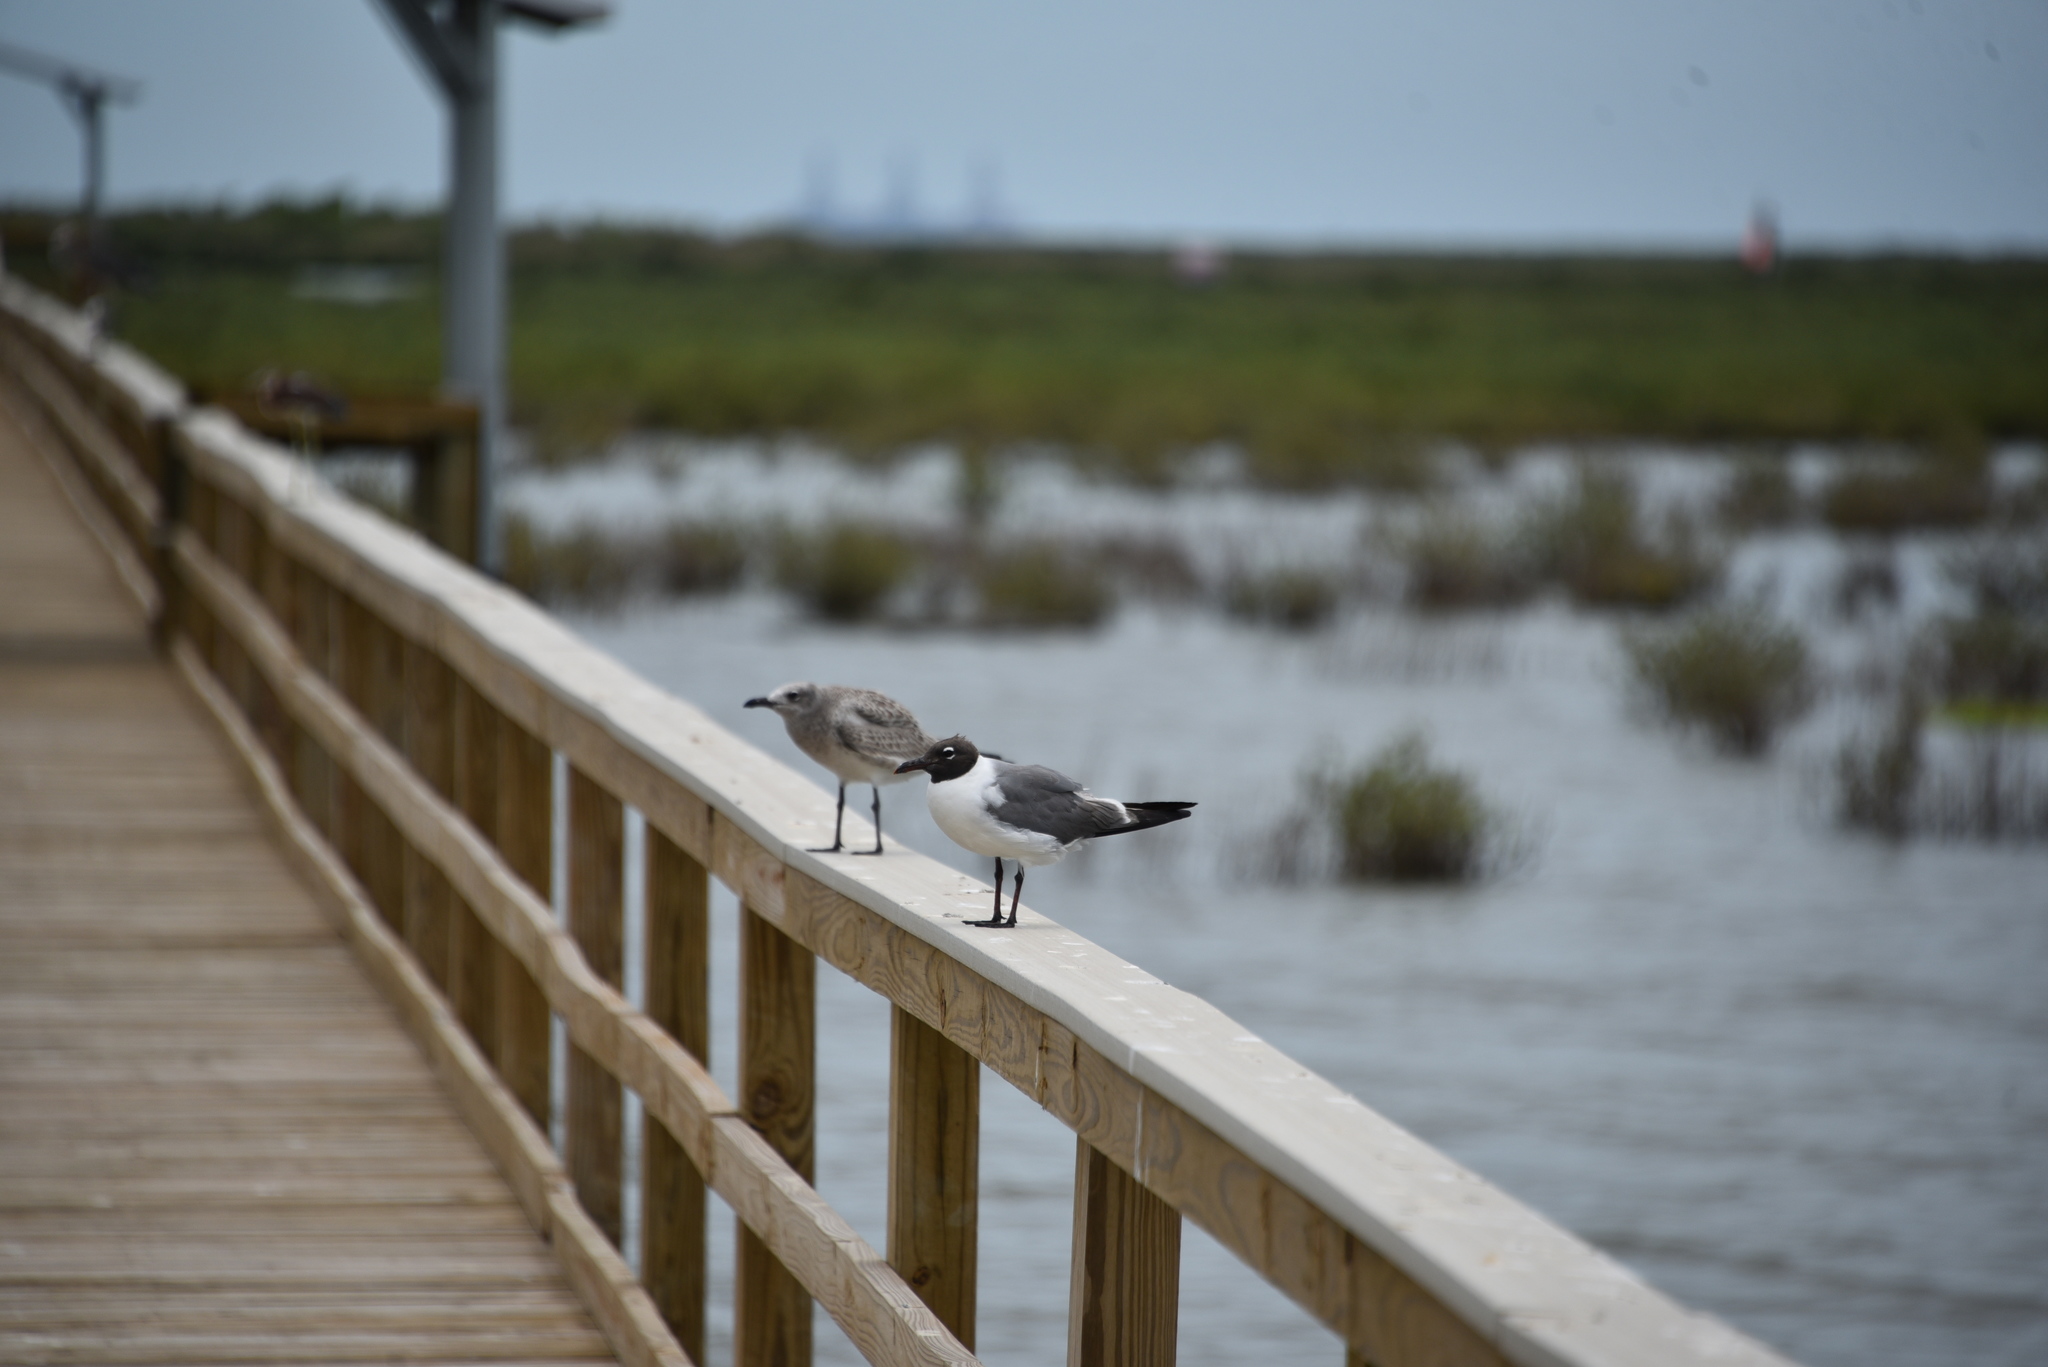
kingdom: Animalia
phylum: Chordata
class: Aves
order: Charadriiformes
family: Laridae
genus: Leucophaeus
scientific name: Leucophaeus atricilla
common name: Laughing gull
